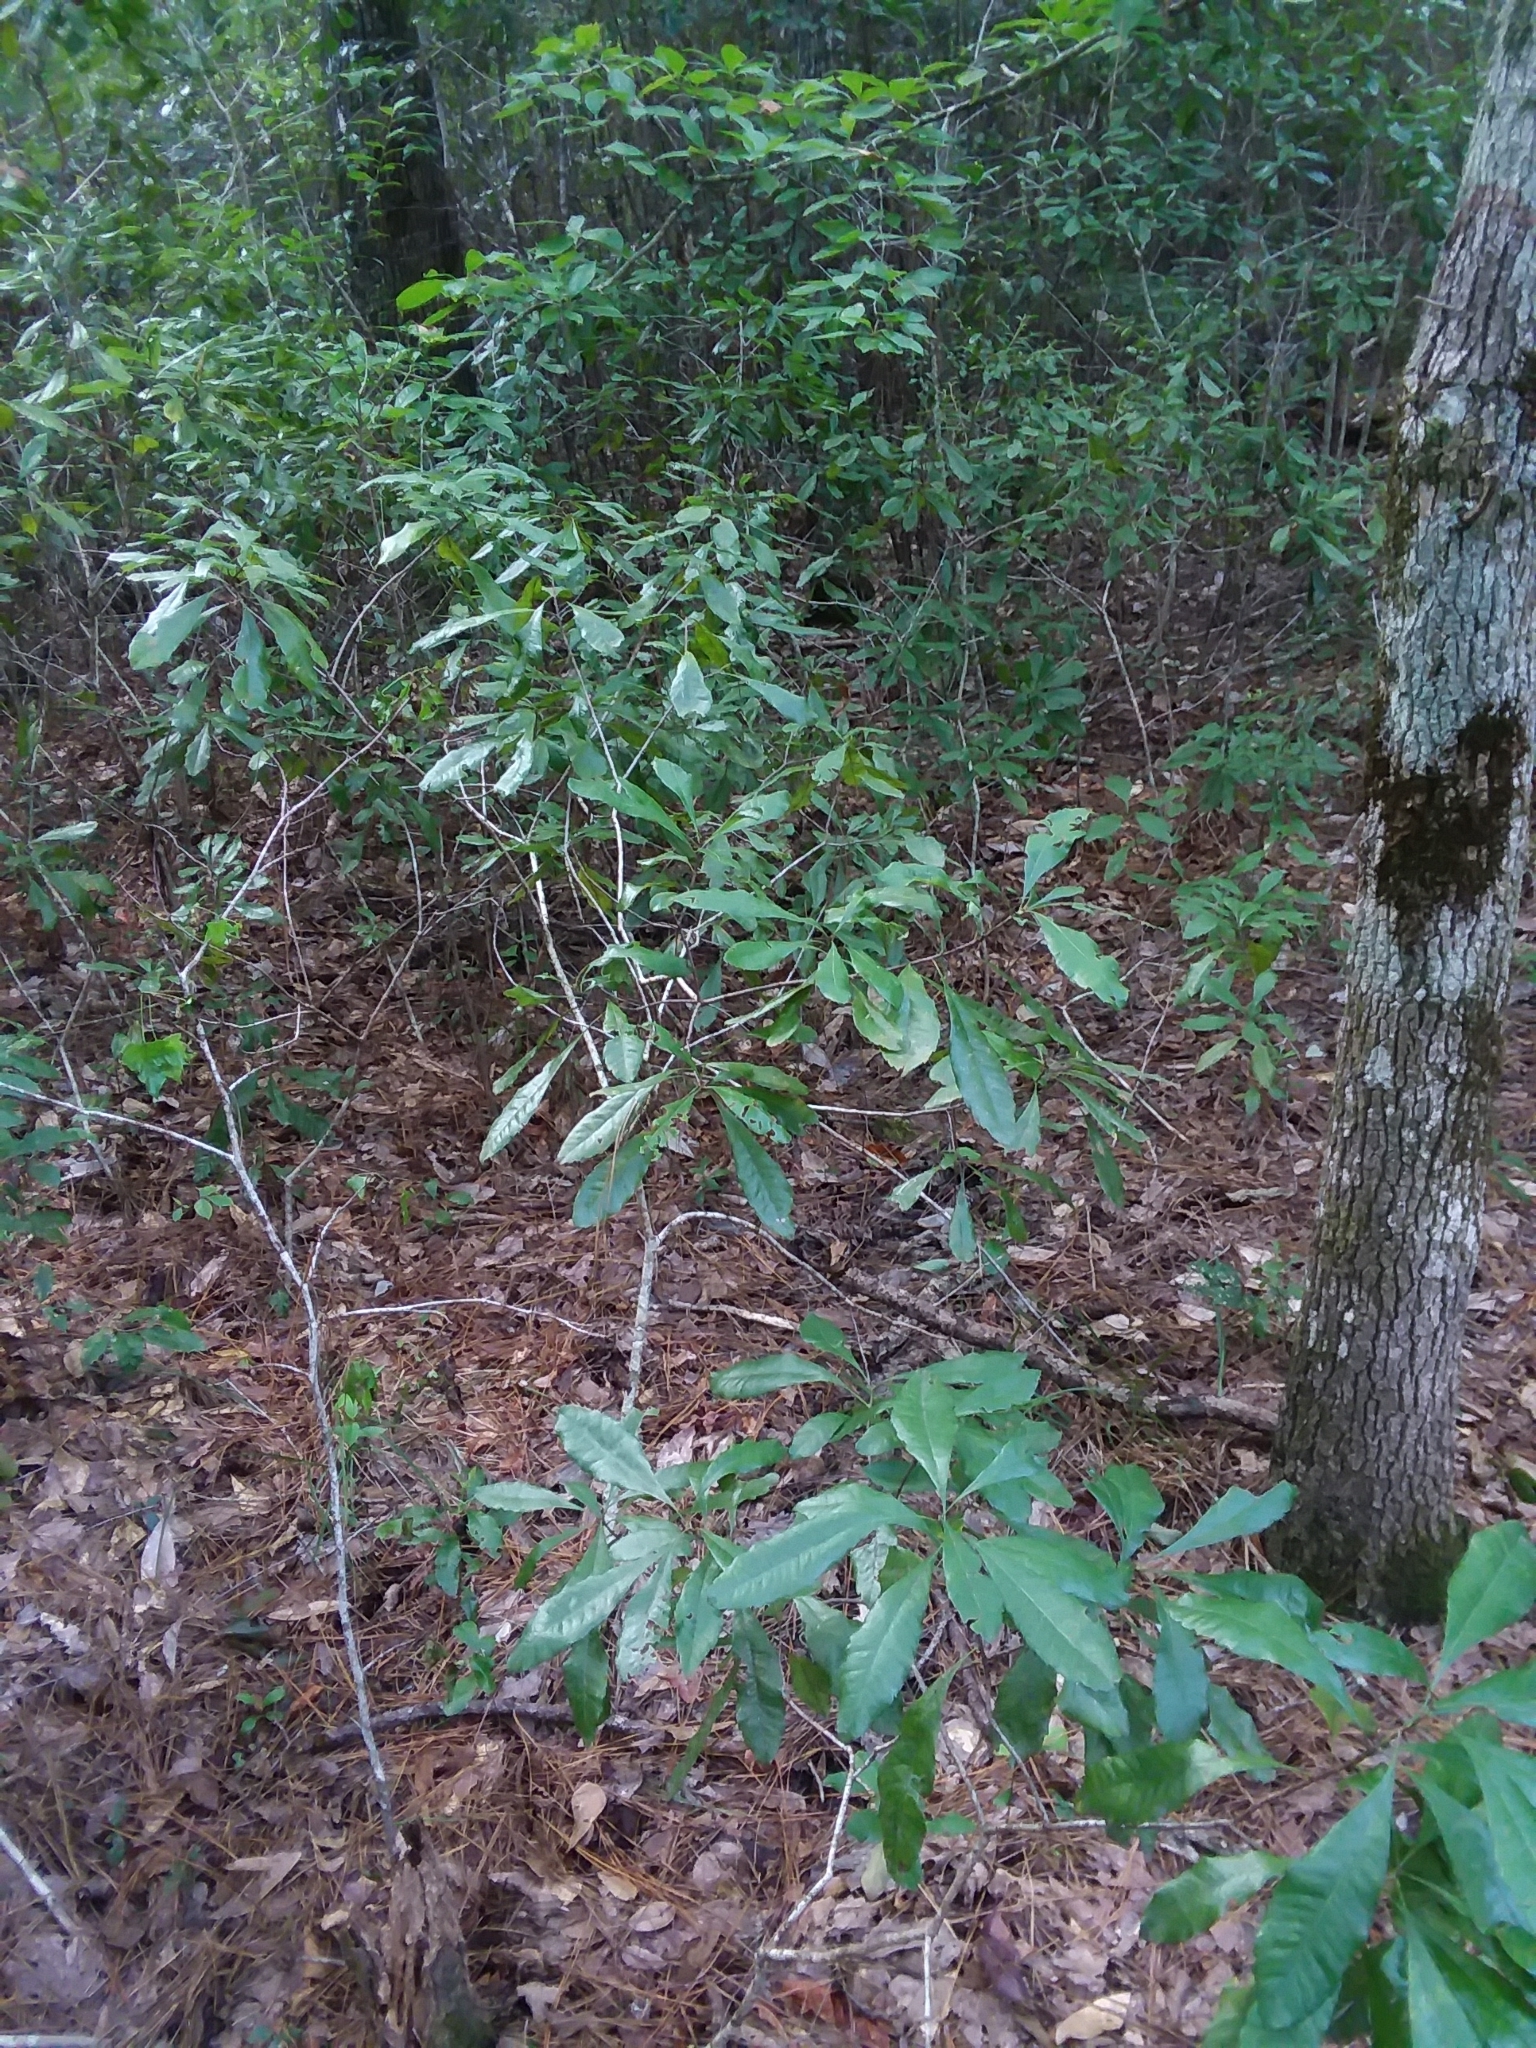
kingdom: Plantae
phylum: Tracheophyta
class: Magnoliopsida
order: Fagales
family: Myricaceae
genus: Morella
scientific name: Morella caroliniensis
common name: Evergreen bayberry
